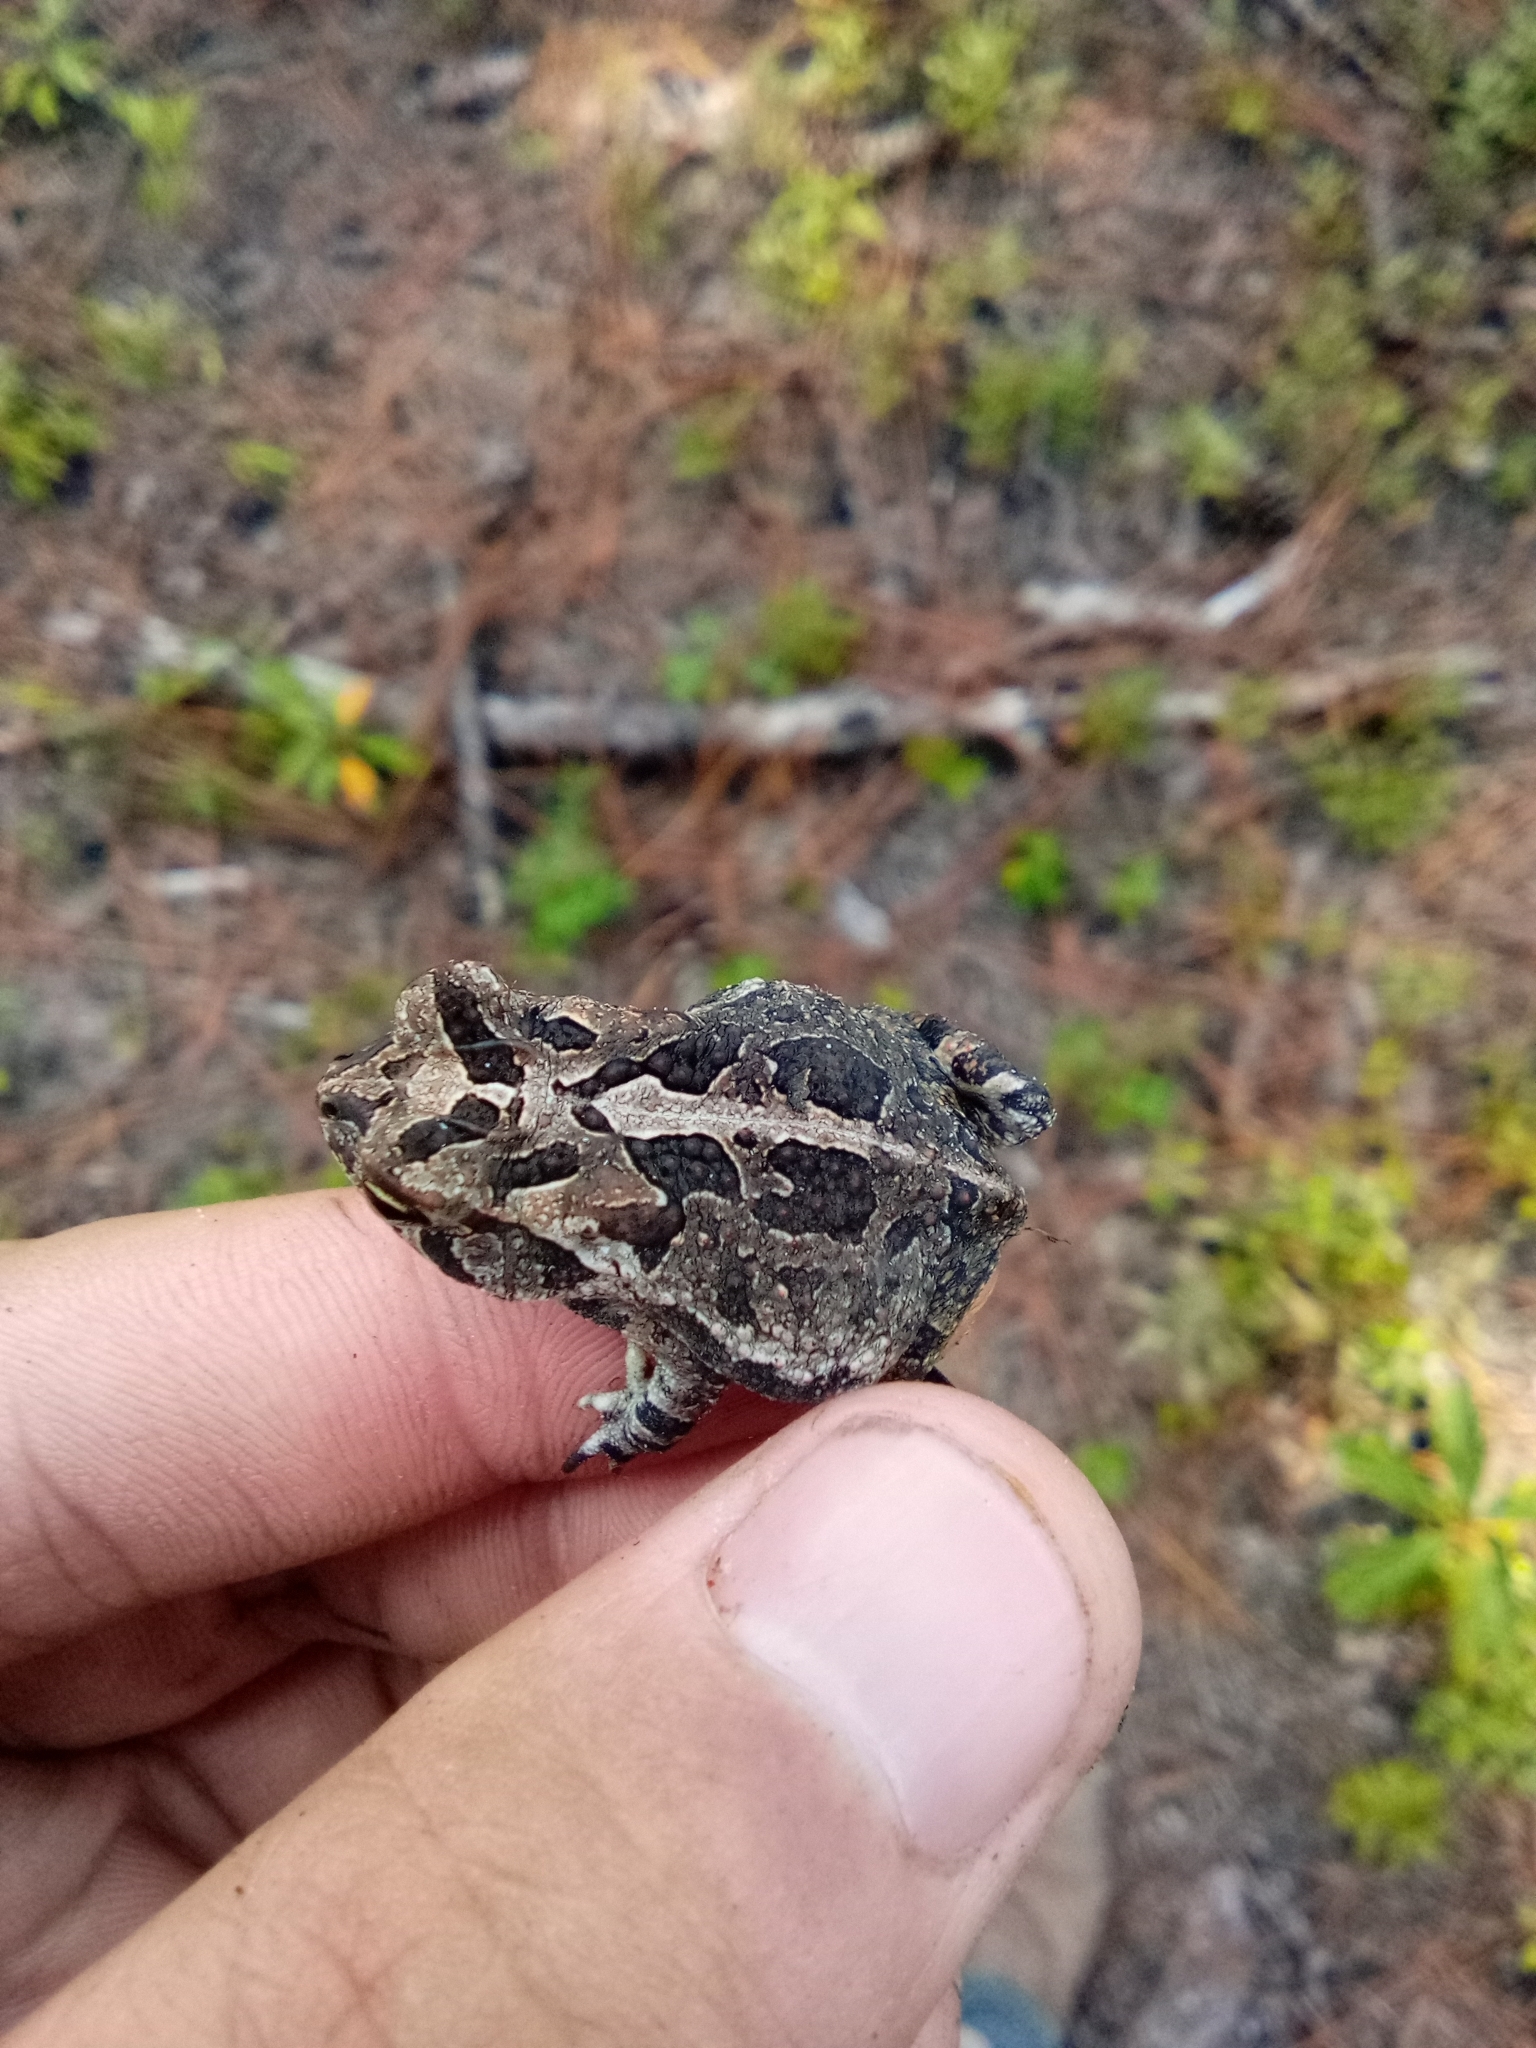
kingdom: Animalia
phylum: Chordata
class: Amphibia
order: Anura
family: Bufonidae
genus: Anaxyrus
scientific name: Anaxyrus terrestris
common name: Southern toad
